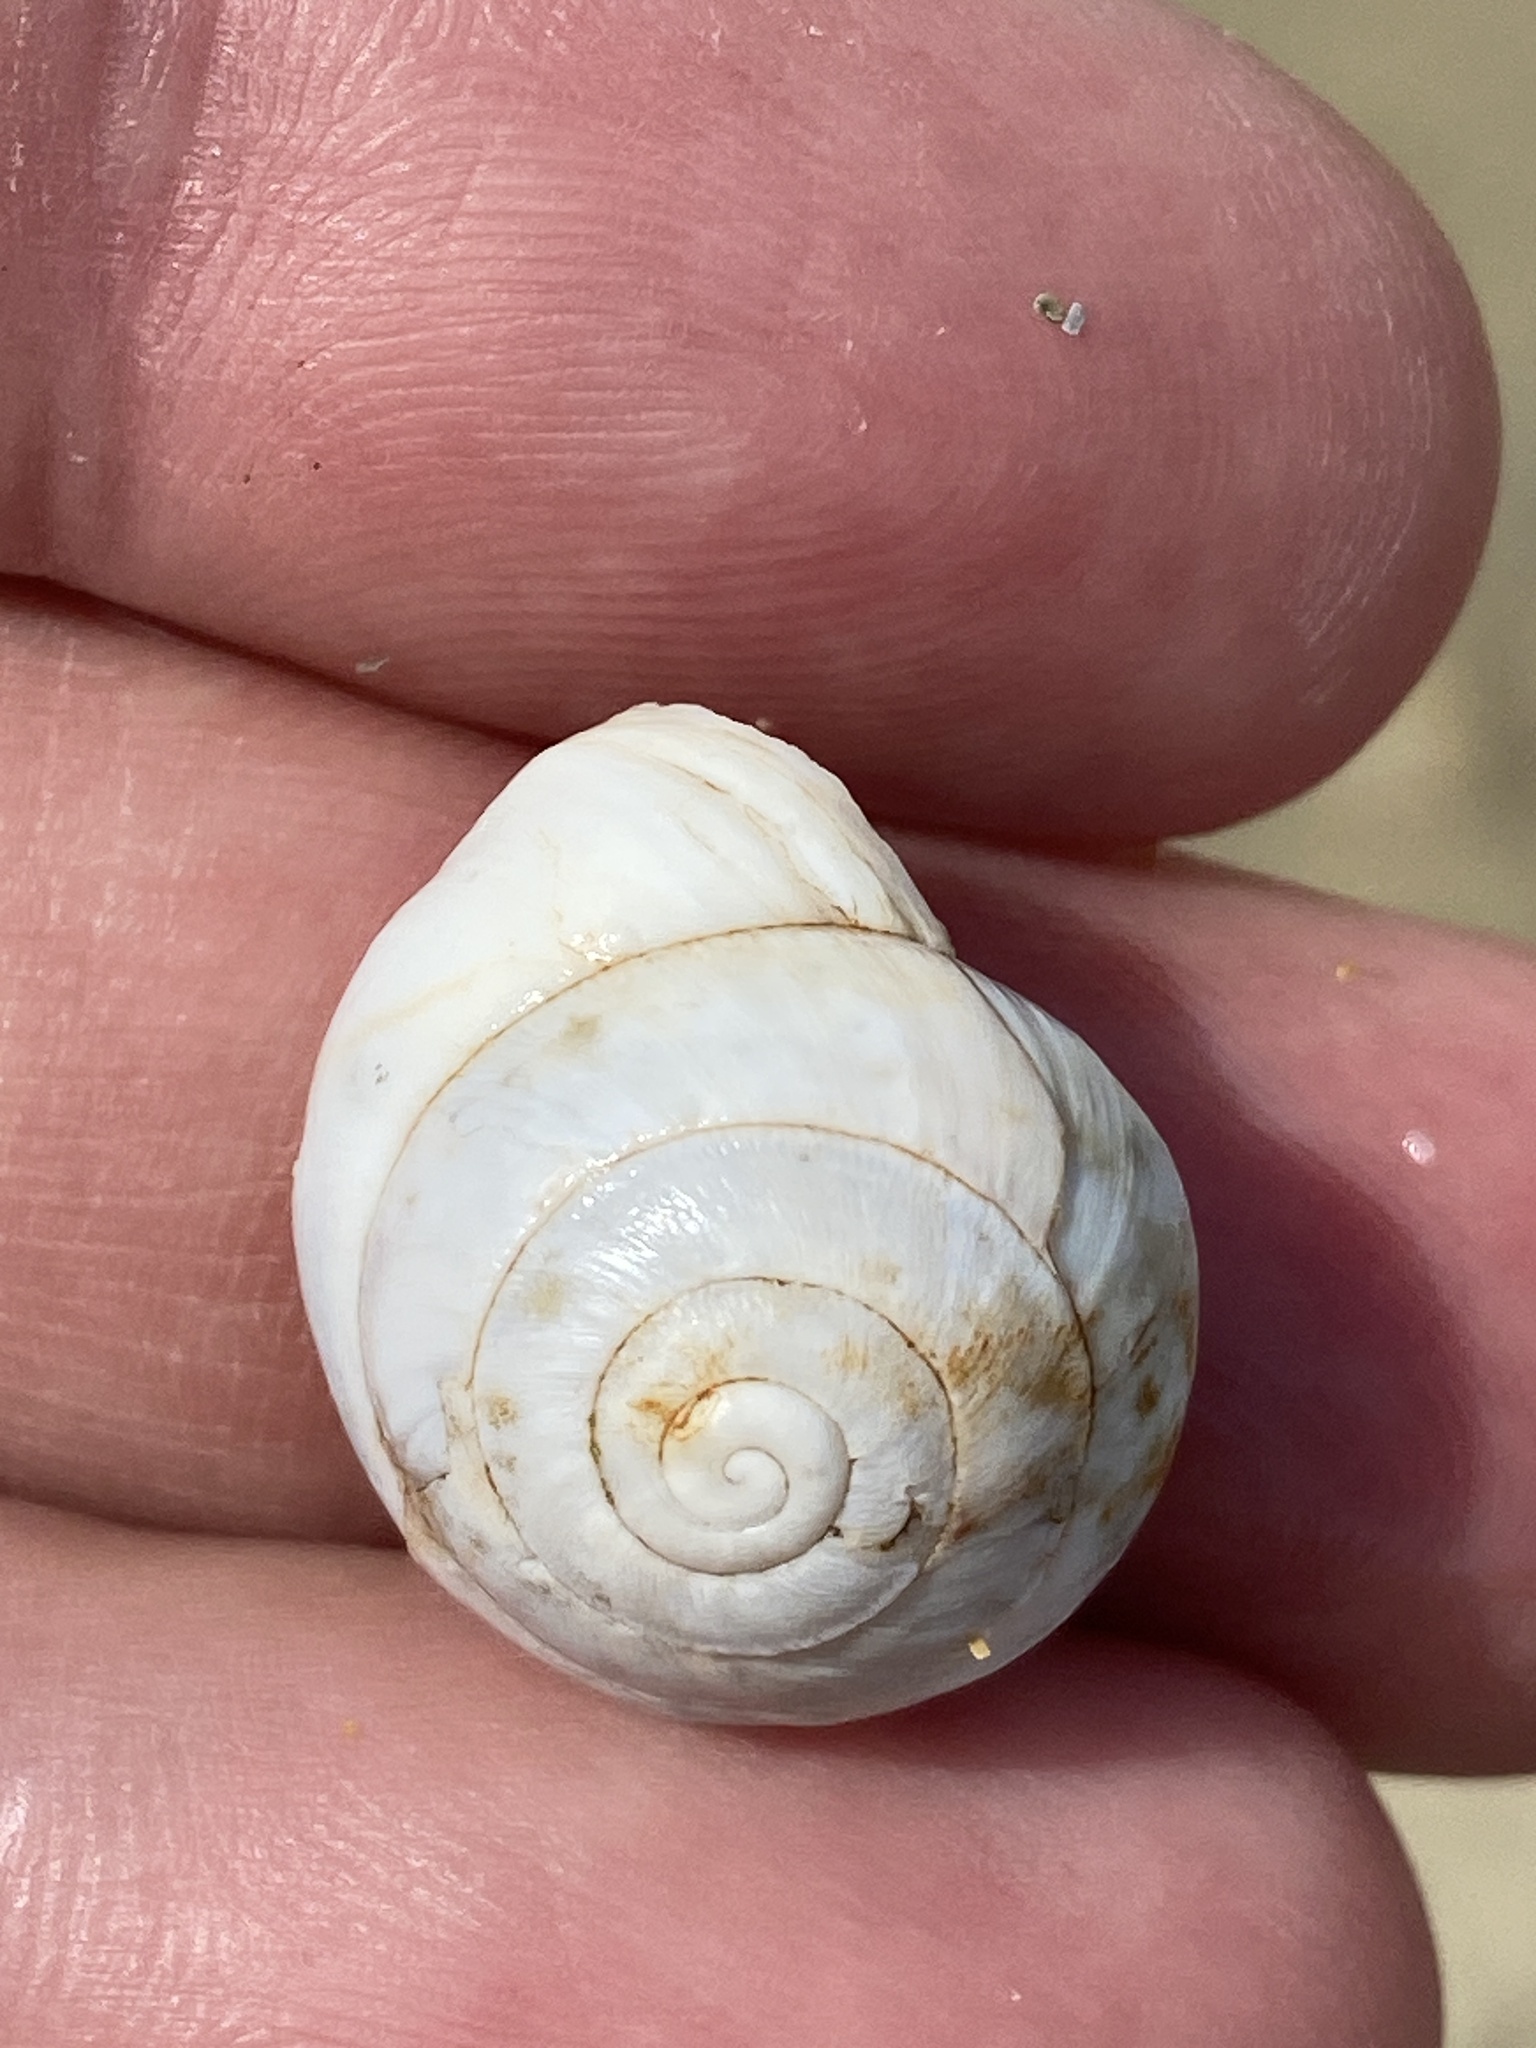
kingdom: Animalia
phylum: Mollusca
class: Gastropoda
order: Stylommatophora
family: Sphincterochilidae
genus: Sphincterochila
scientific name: Sphincterochila candidissima
